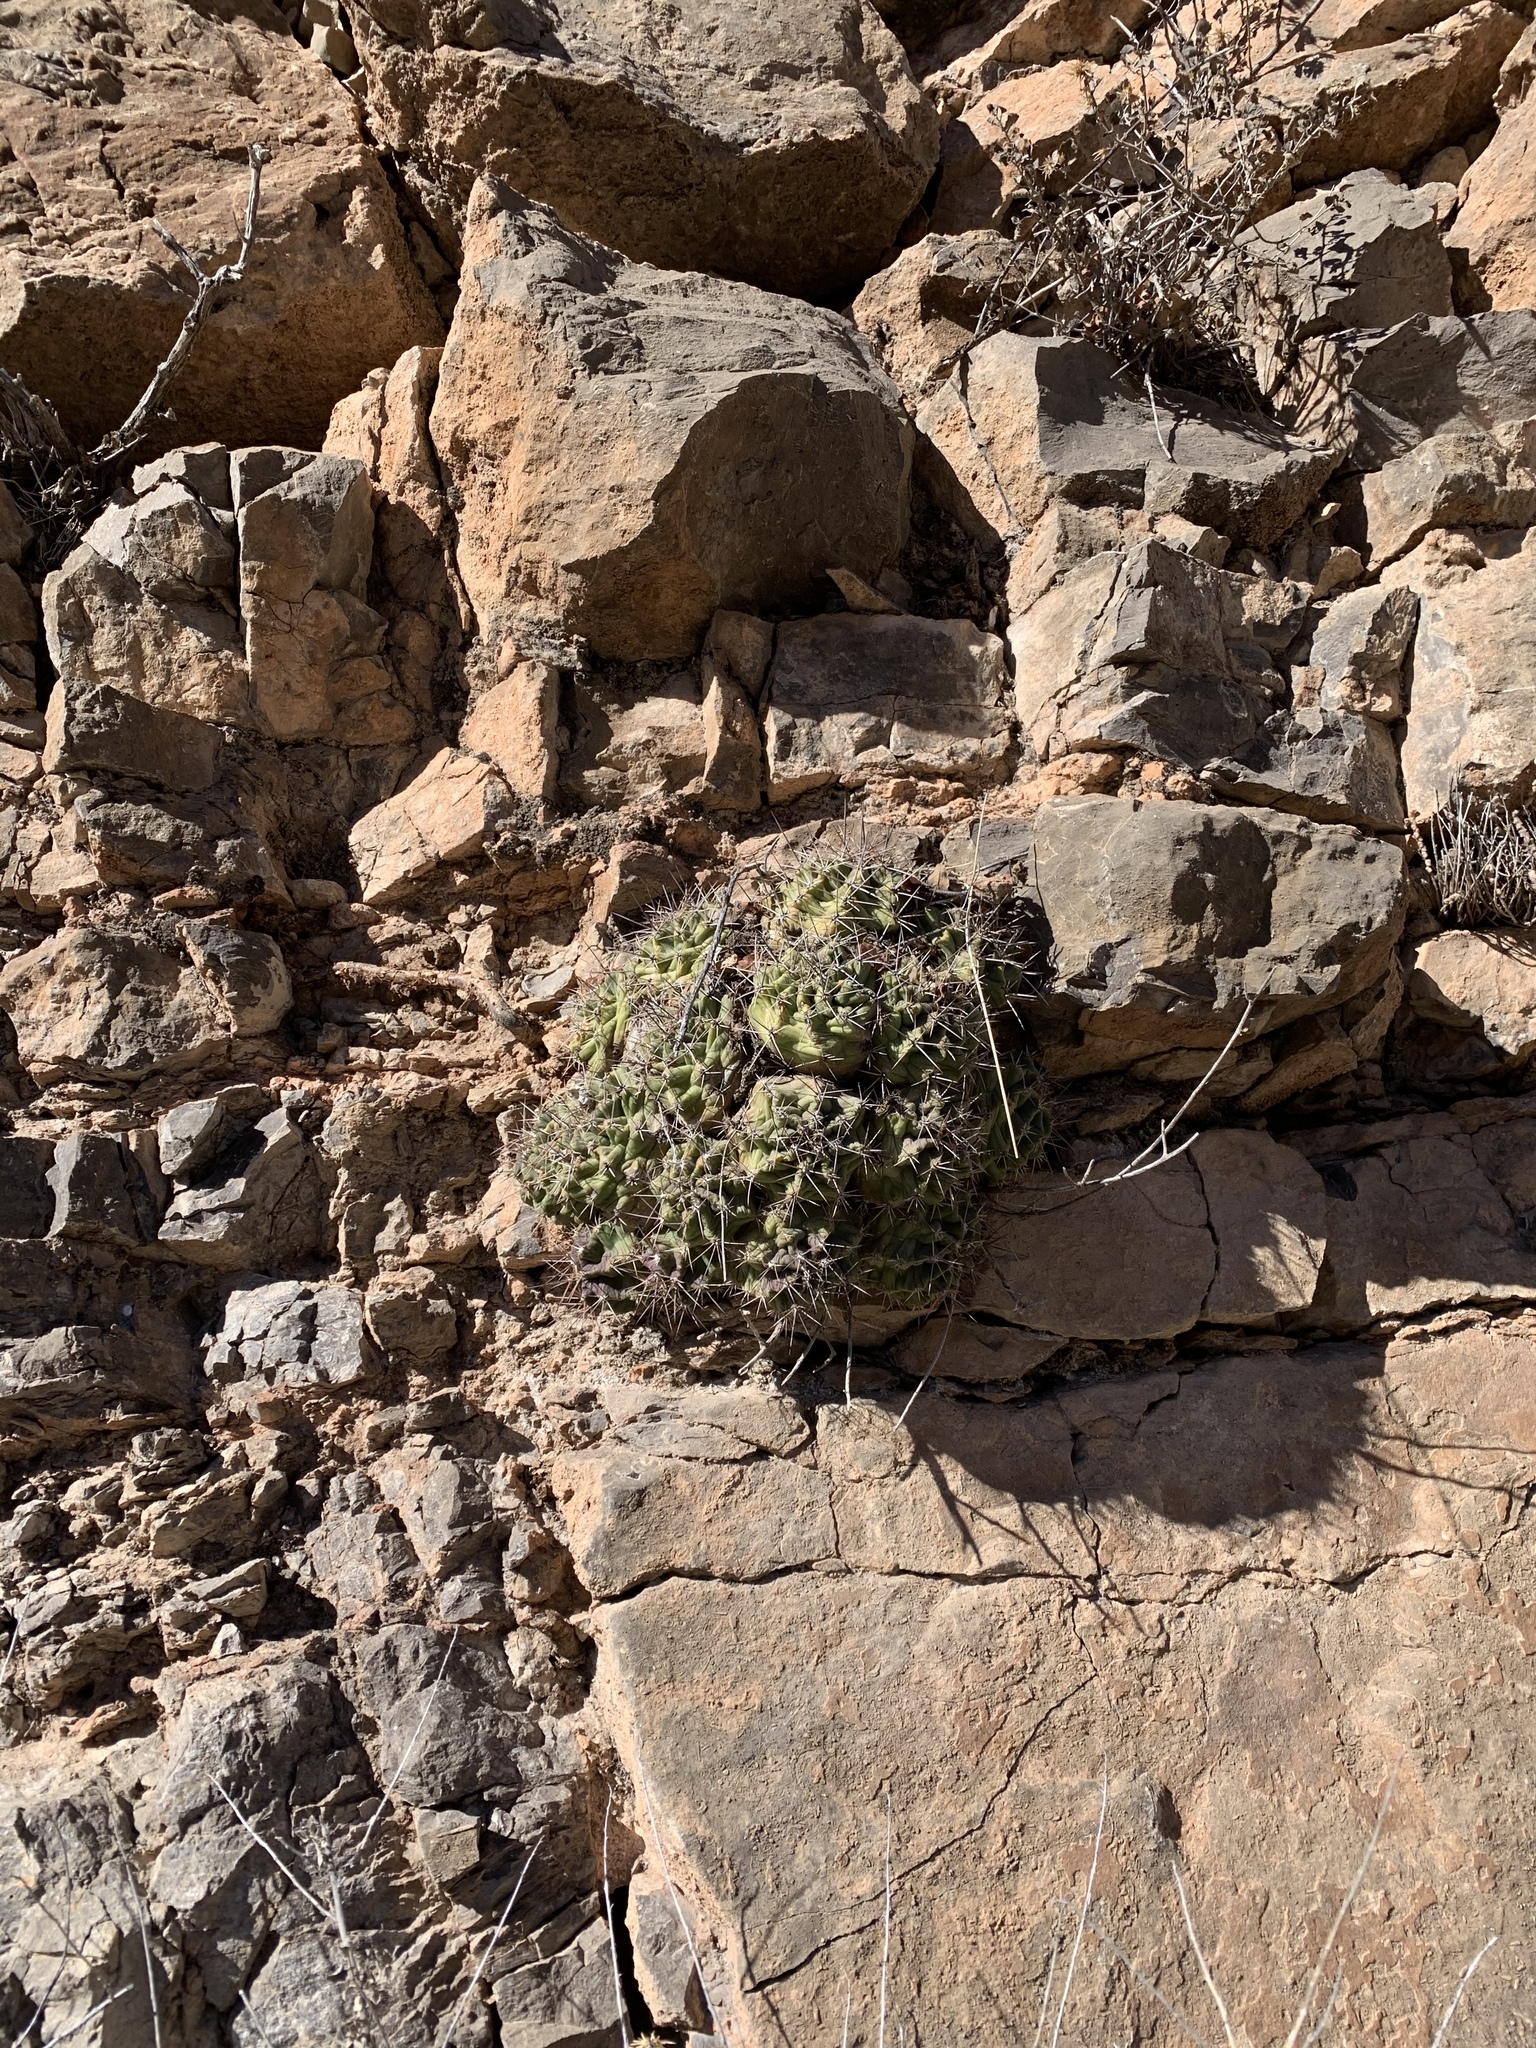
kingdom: Plantae
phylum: Tracheophyta
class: Magnoliopsida
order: Caryophyllales
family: Cactaceae
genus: Echinocereus
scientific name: Echinocereus coccineus
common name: Scarlet hedgehog cactus
